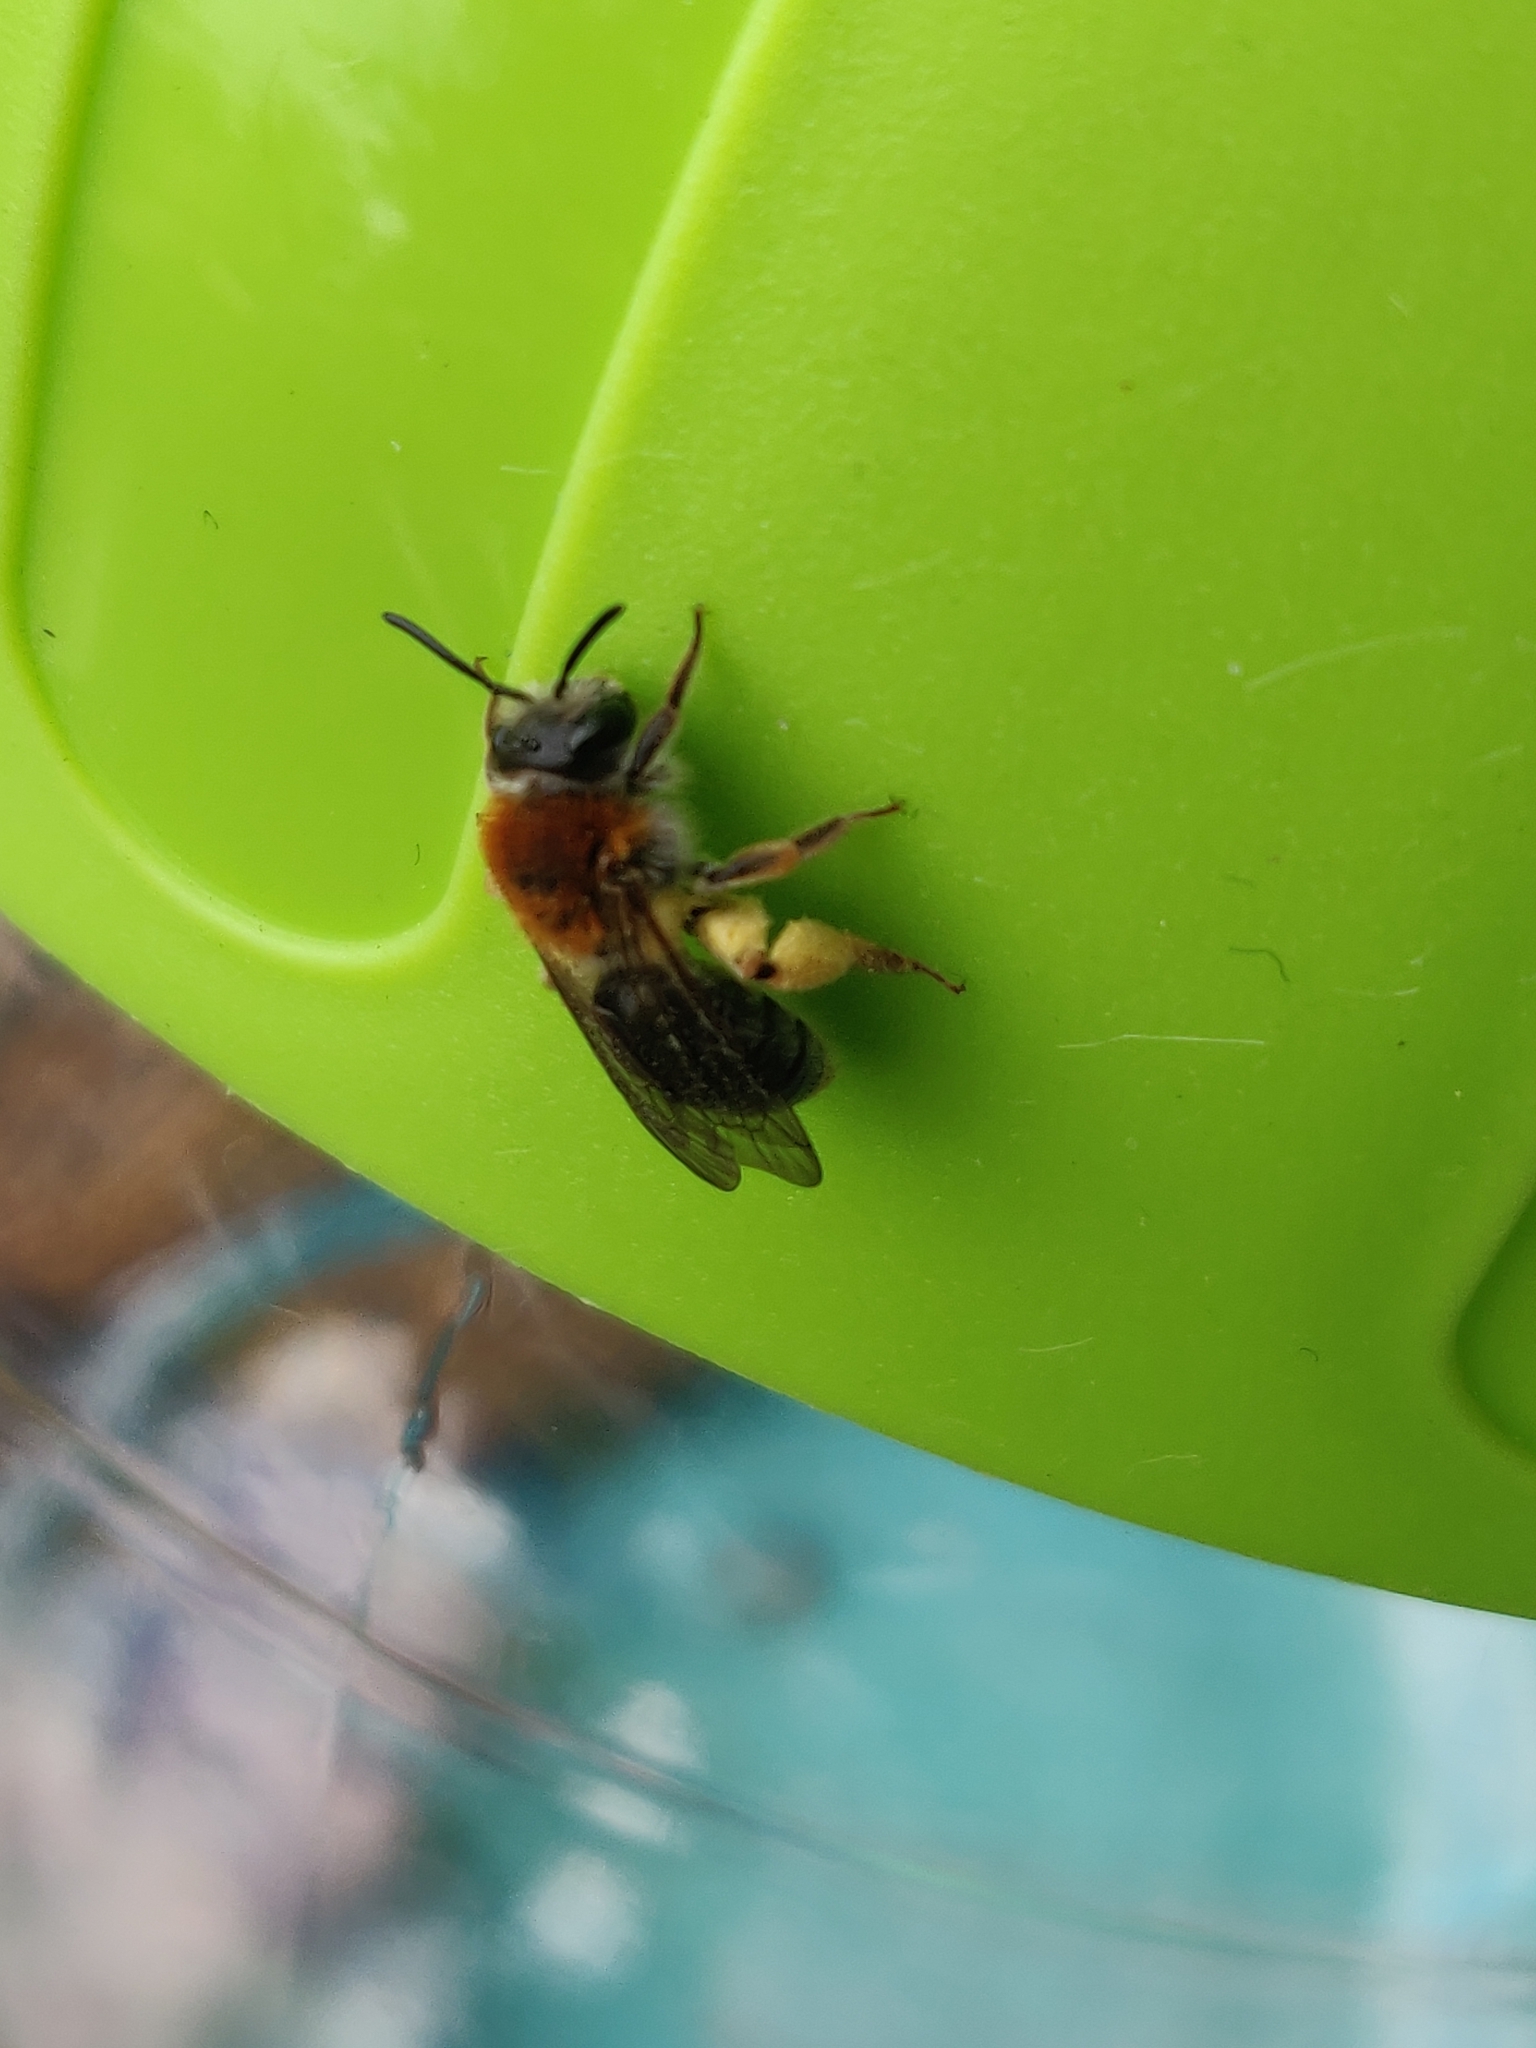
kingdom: Animalia
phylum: Arthropoda
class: Insecta
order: Hymenoptera
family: Andrenidae
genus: Andrena
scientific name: Andrena haemorrhoa
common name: Early mining bee
